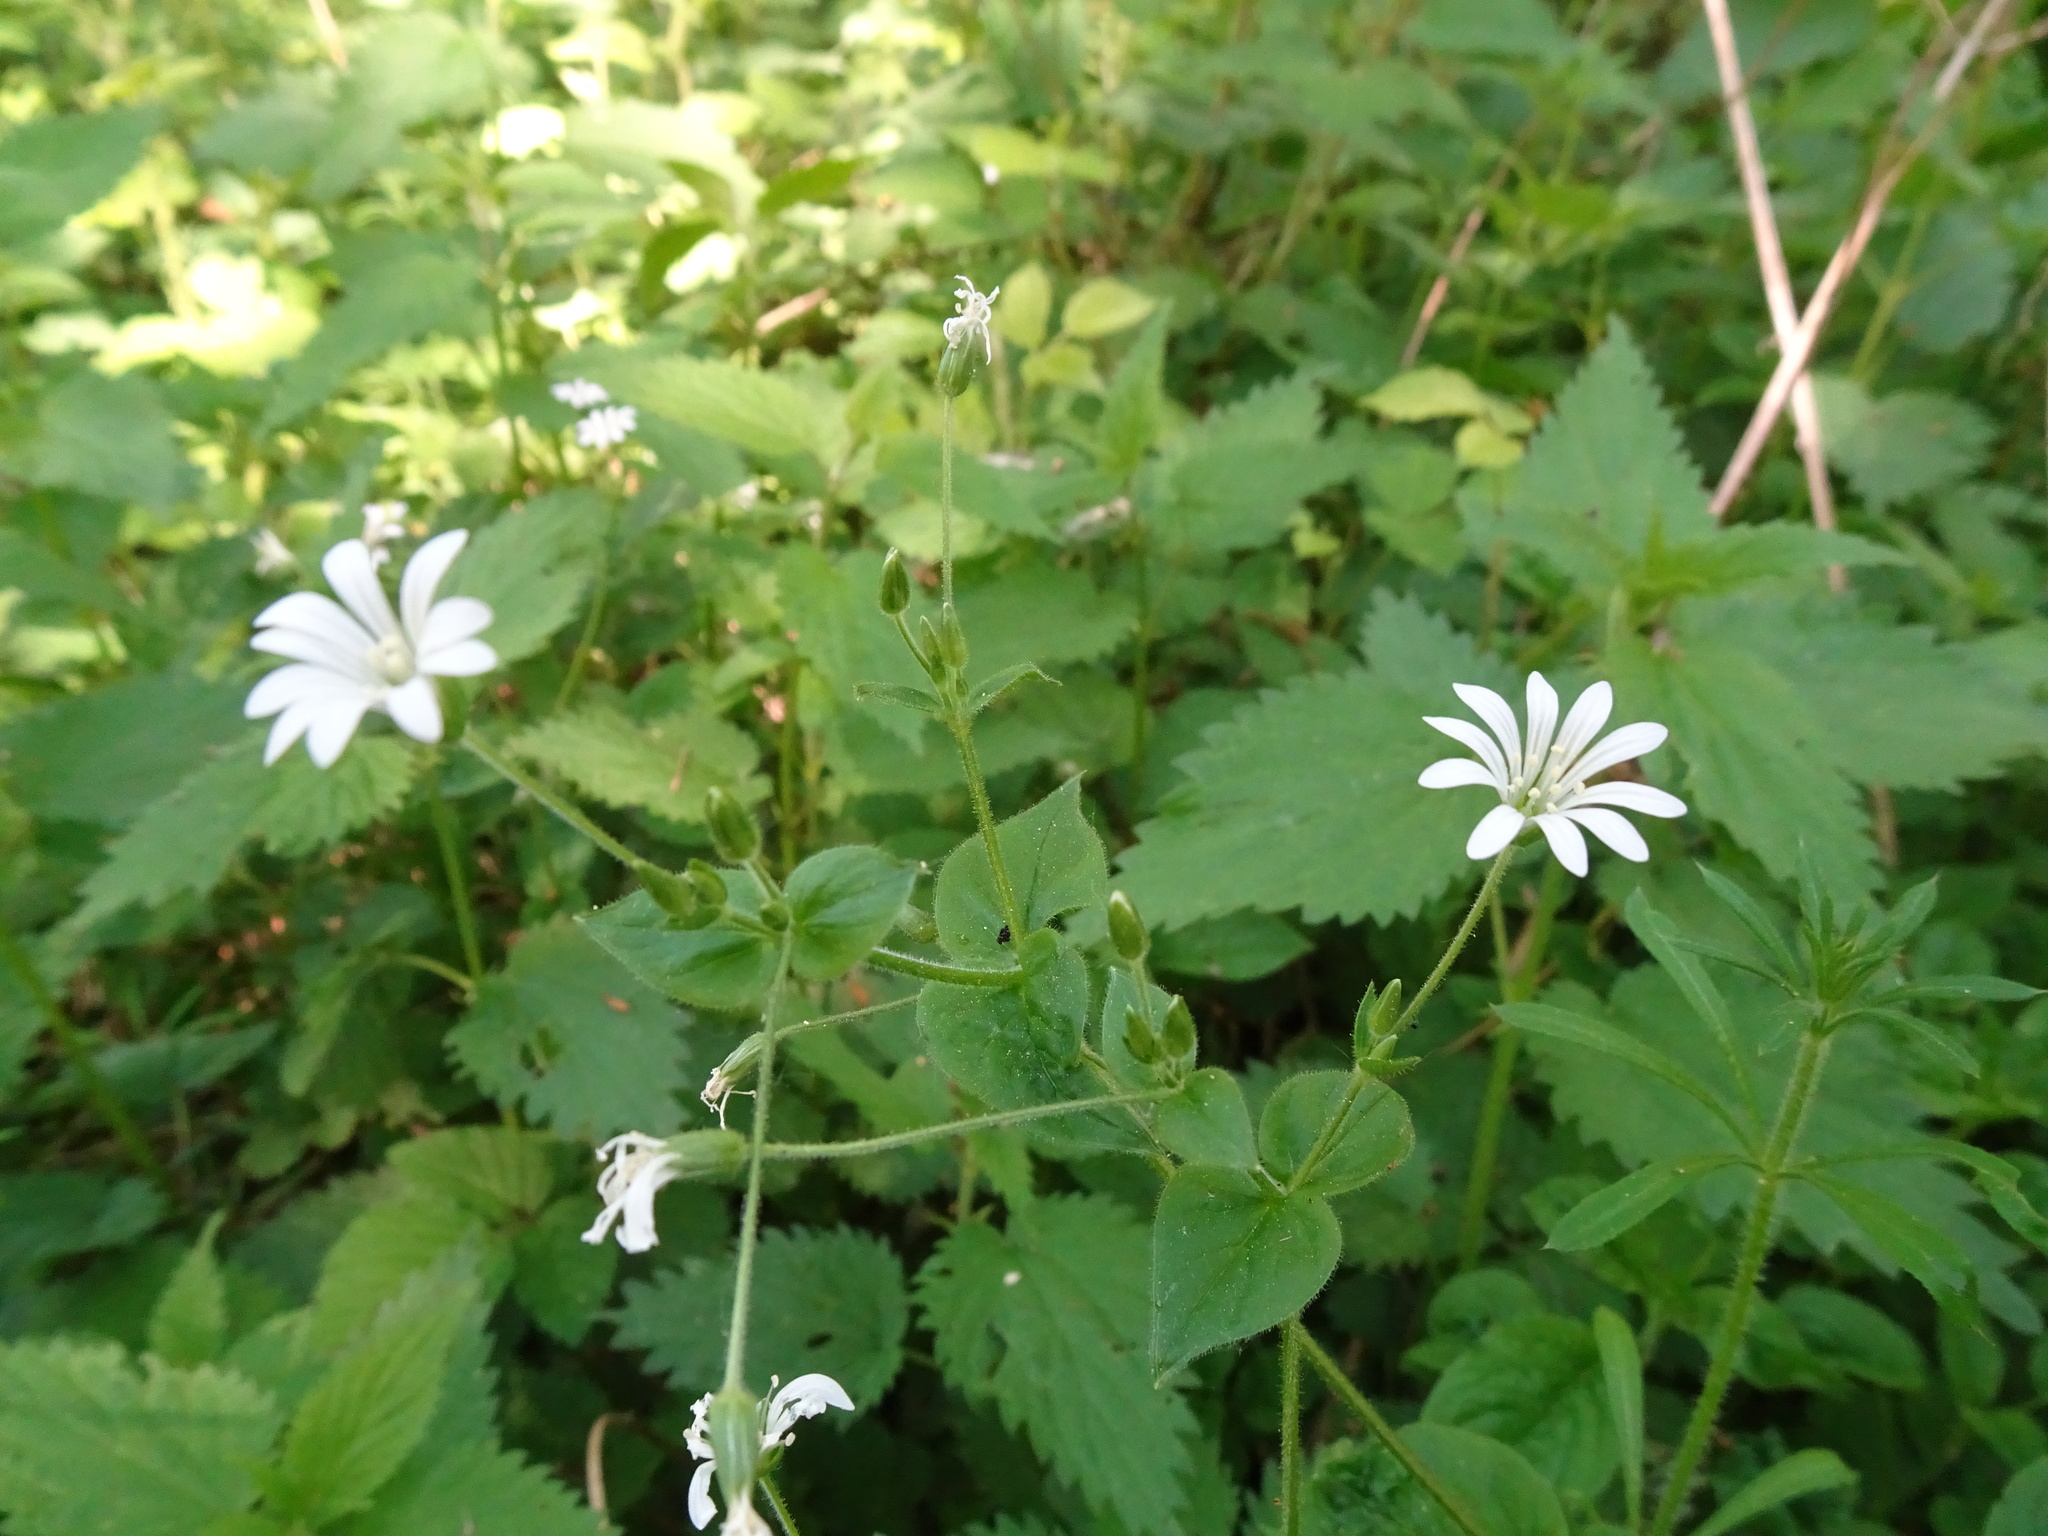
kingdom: Plantae
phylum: Tracheophyta
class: Magnoliopsida
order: Caryophyllales
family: Caryophyllaceae
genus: Stellaria
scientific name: Stellaria nemorum
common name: Wood stitchwort
